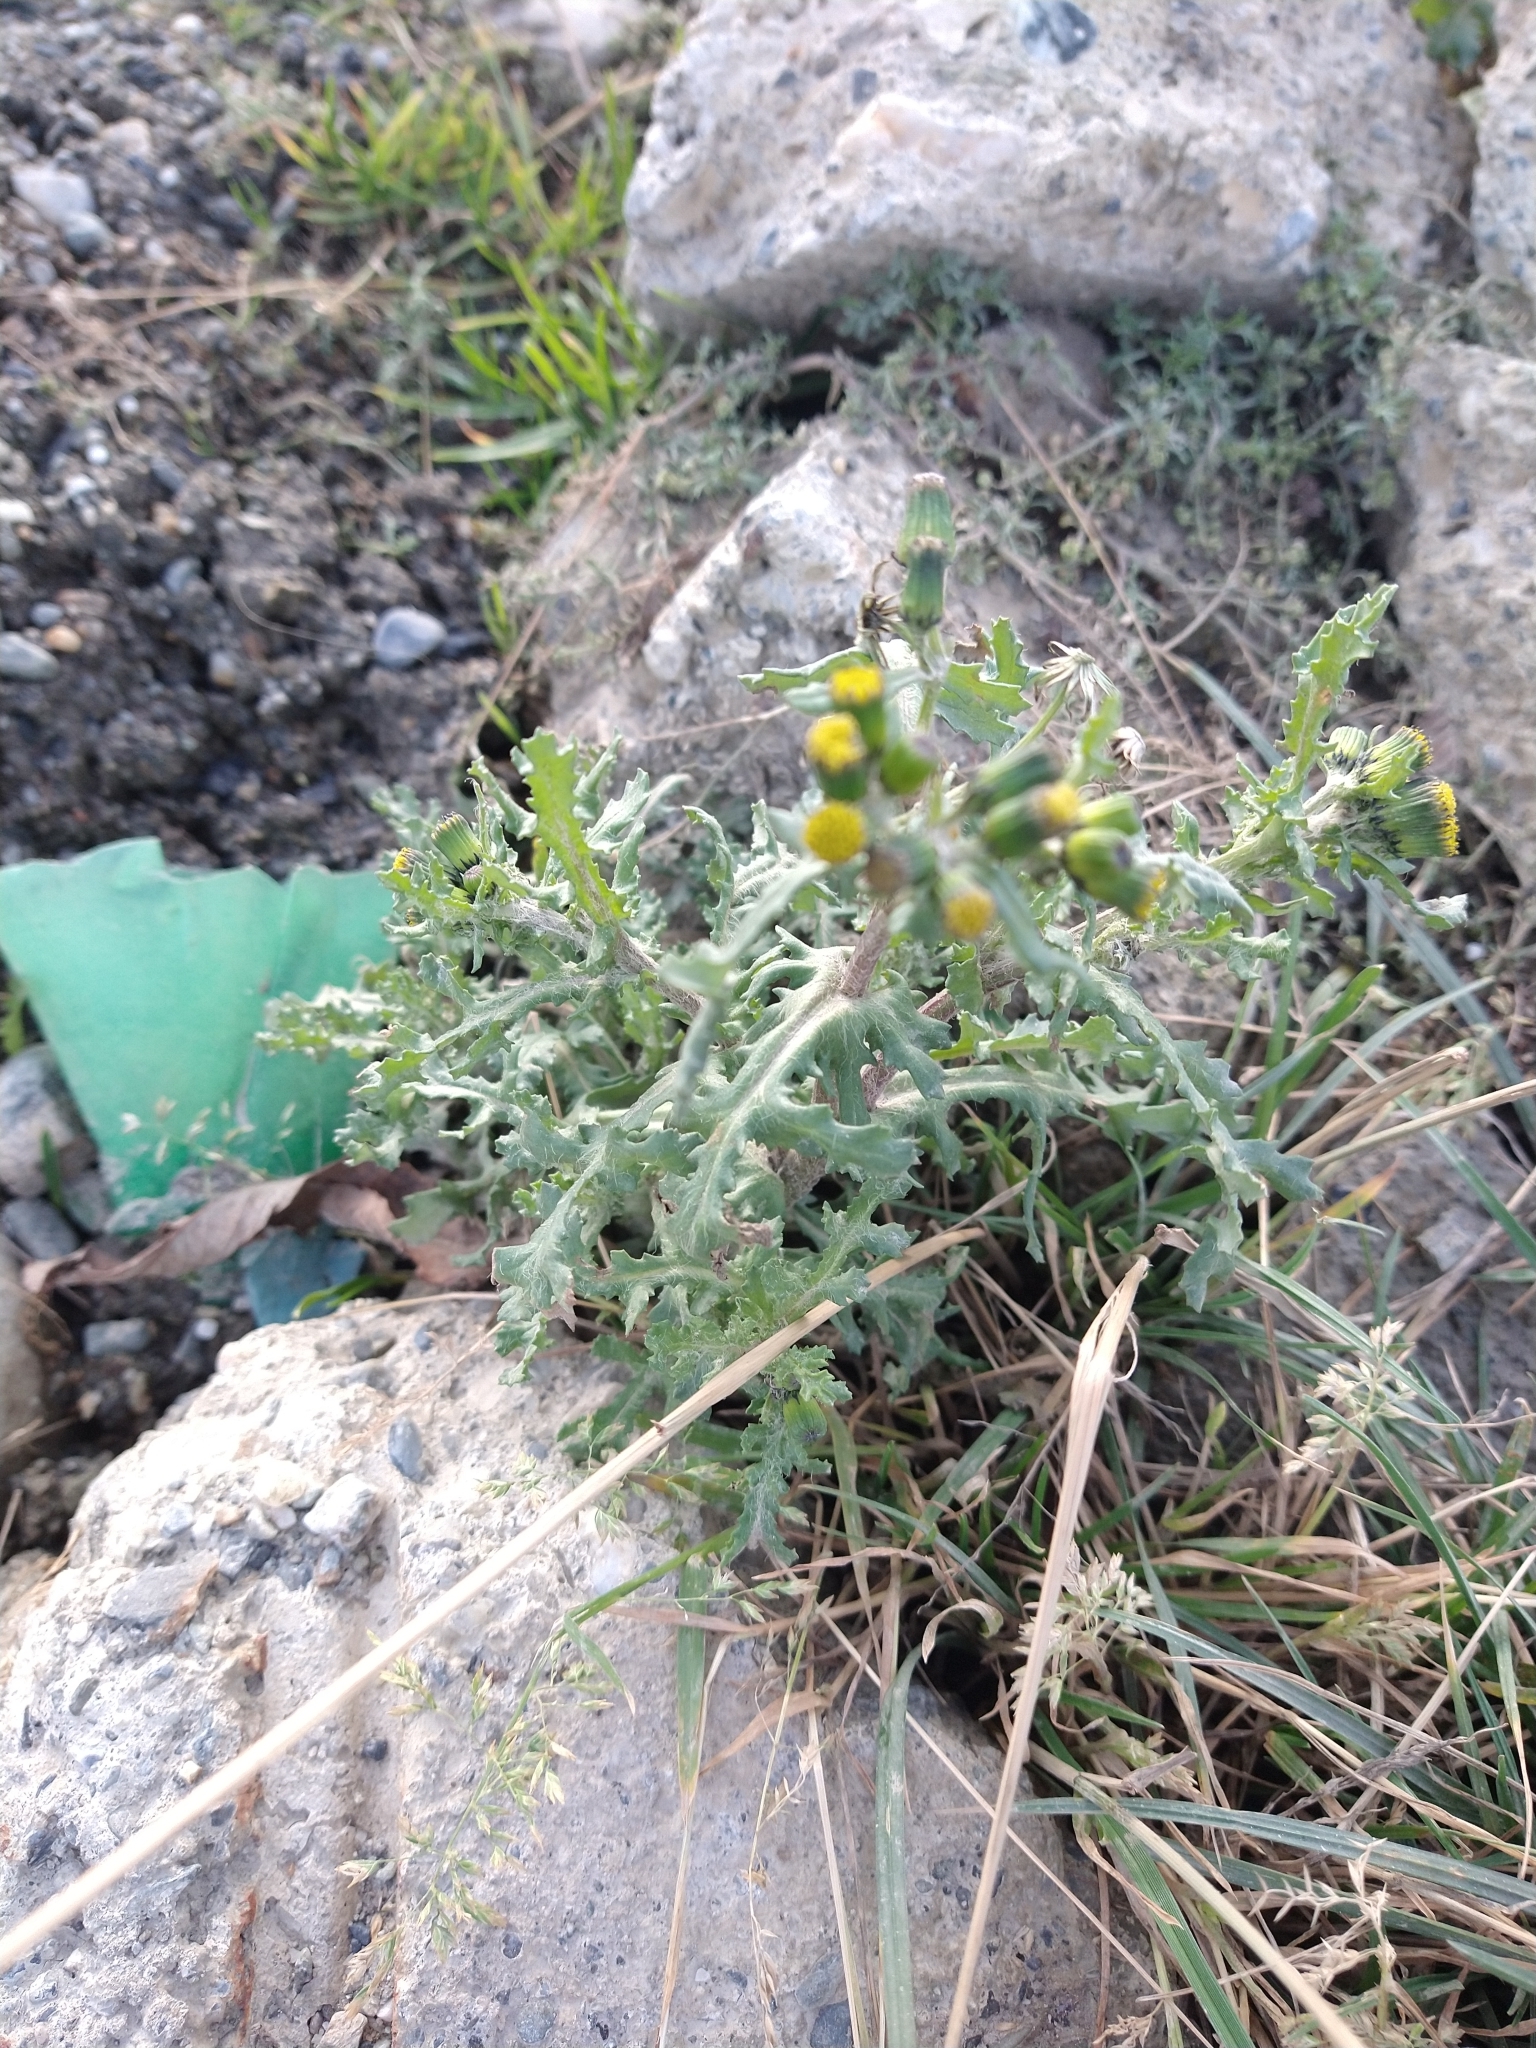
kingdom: Plantae
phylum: Tracheophyta
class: Magnoliopsida
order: Asterales
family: Asteraceae
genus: Senecio
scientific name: Senecio vulgaris
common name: Old-man-in-the-spring
